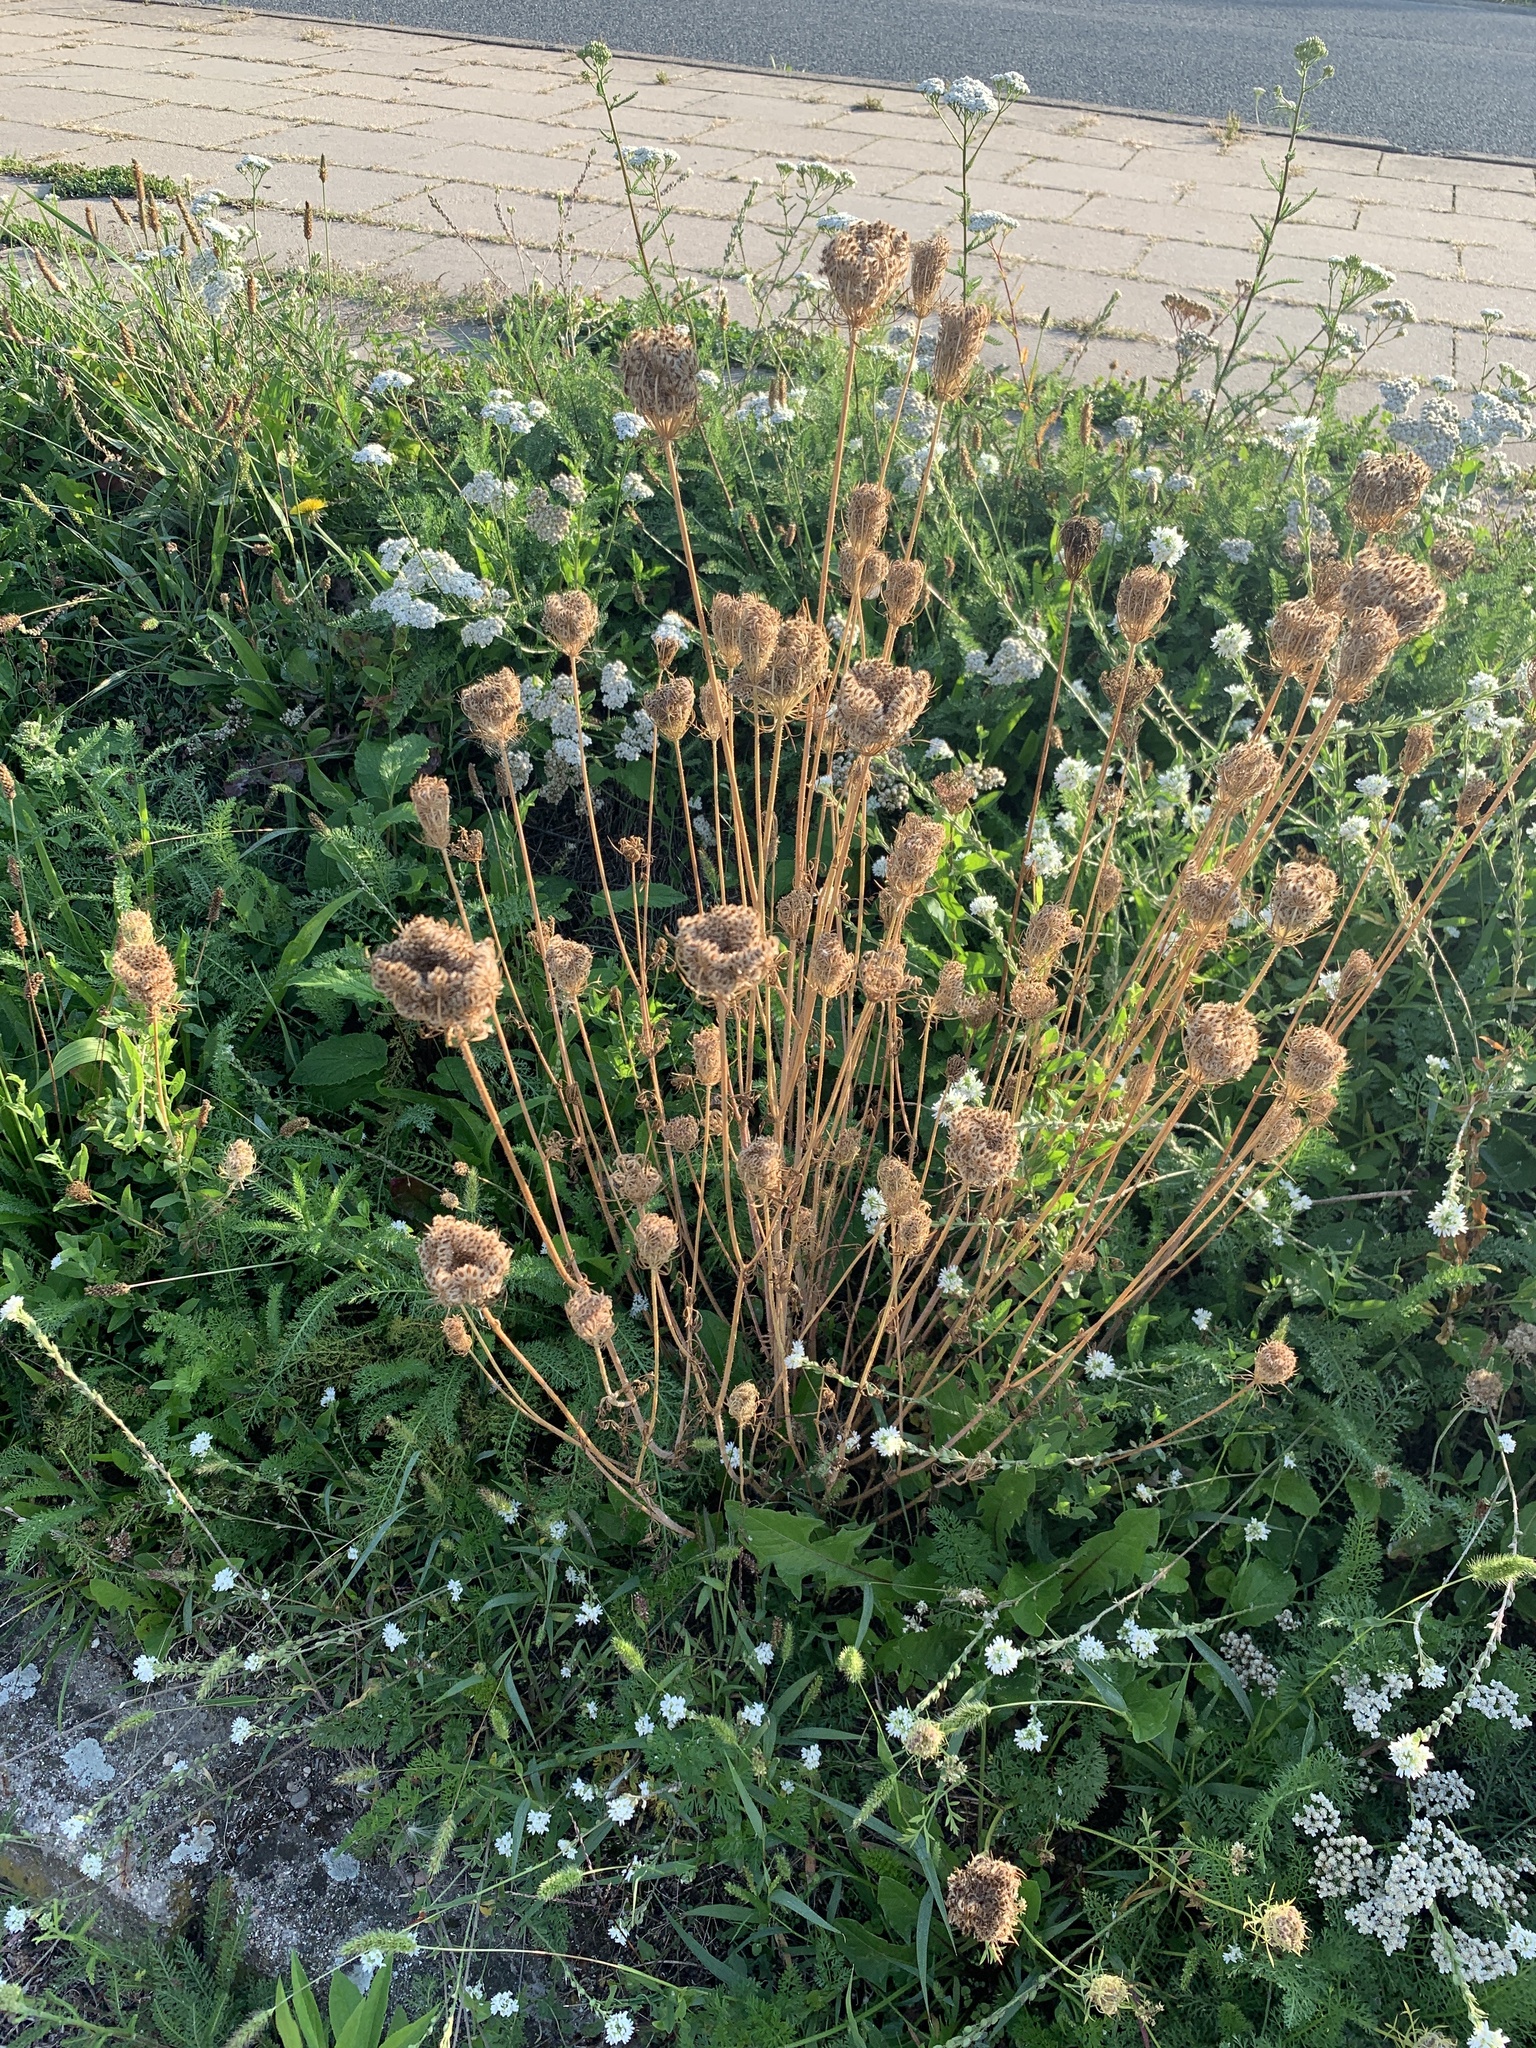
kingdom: Plantae
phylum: Tracheophyta
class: Magnoliopsida
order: Apiales
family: Apiaceae
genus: Daucus
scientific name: Daucus carota
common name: Wild carrot
